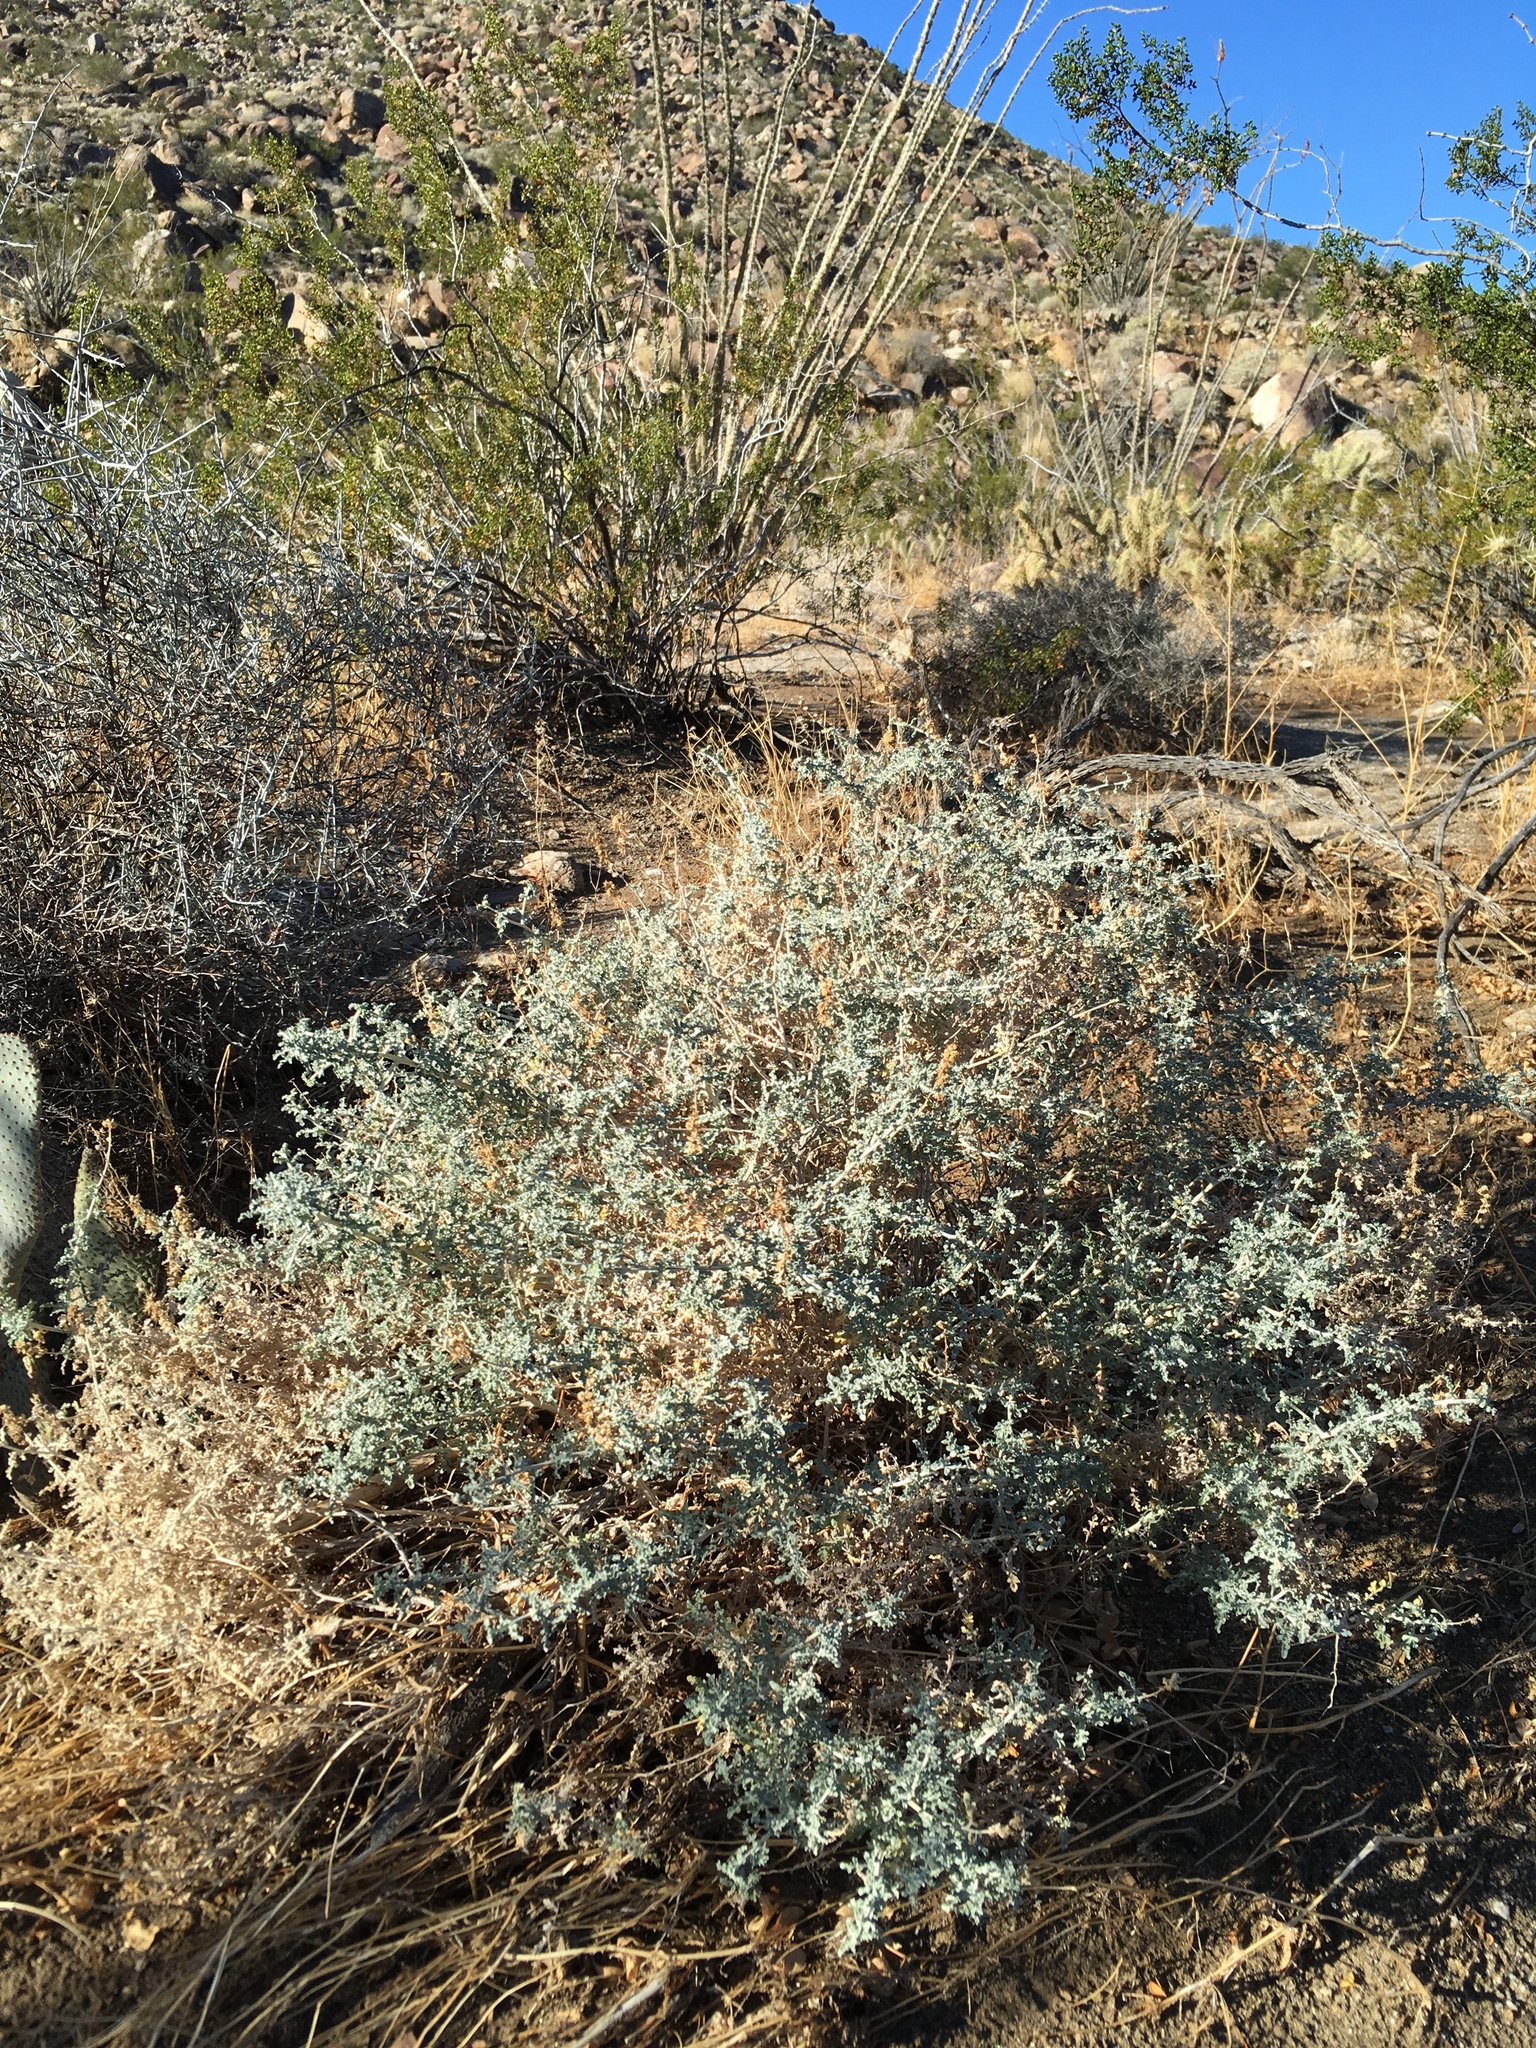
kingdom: Plantae
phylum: Tracheophyta
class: Magnoliopsida
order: Asterales
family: Asteraceae
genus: Ambrosia
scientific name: Ambrosia dumosa
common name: Bur-sage
